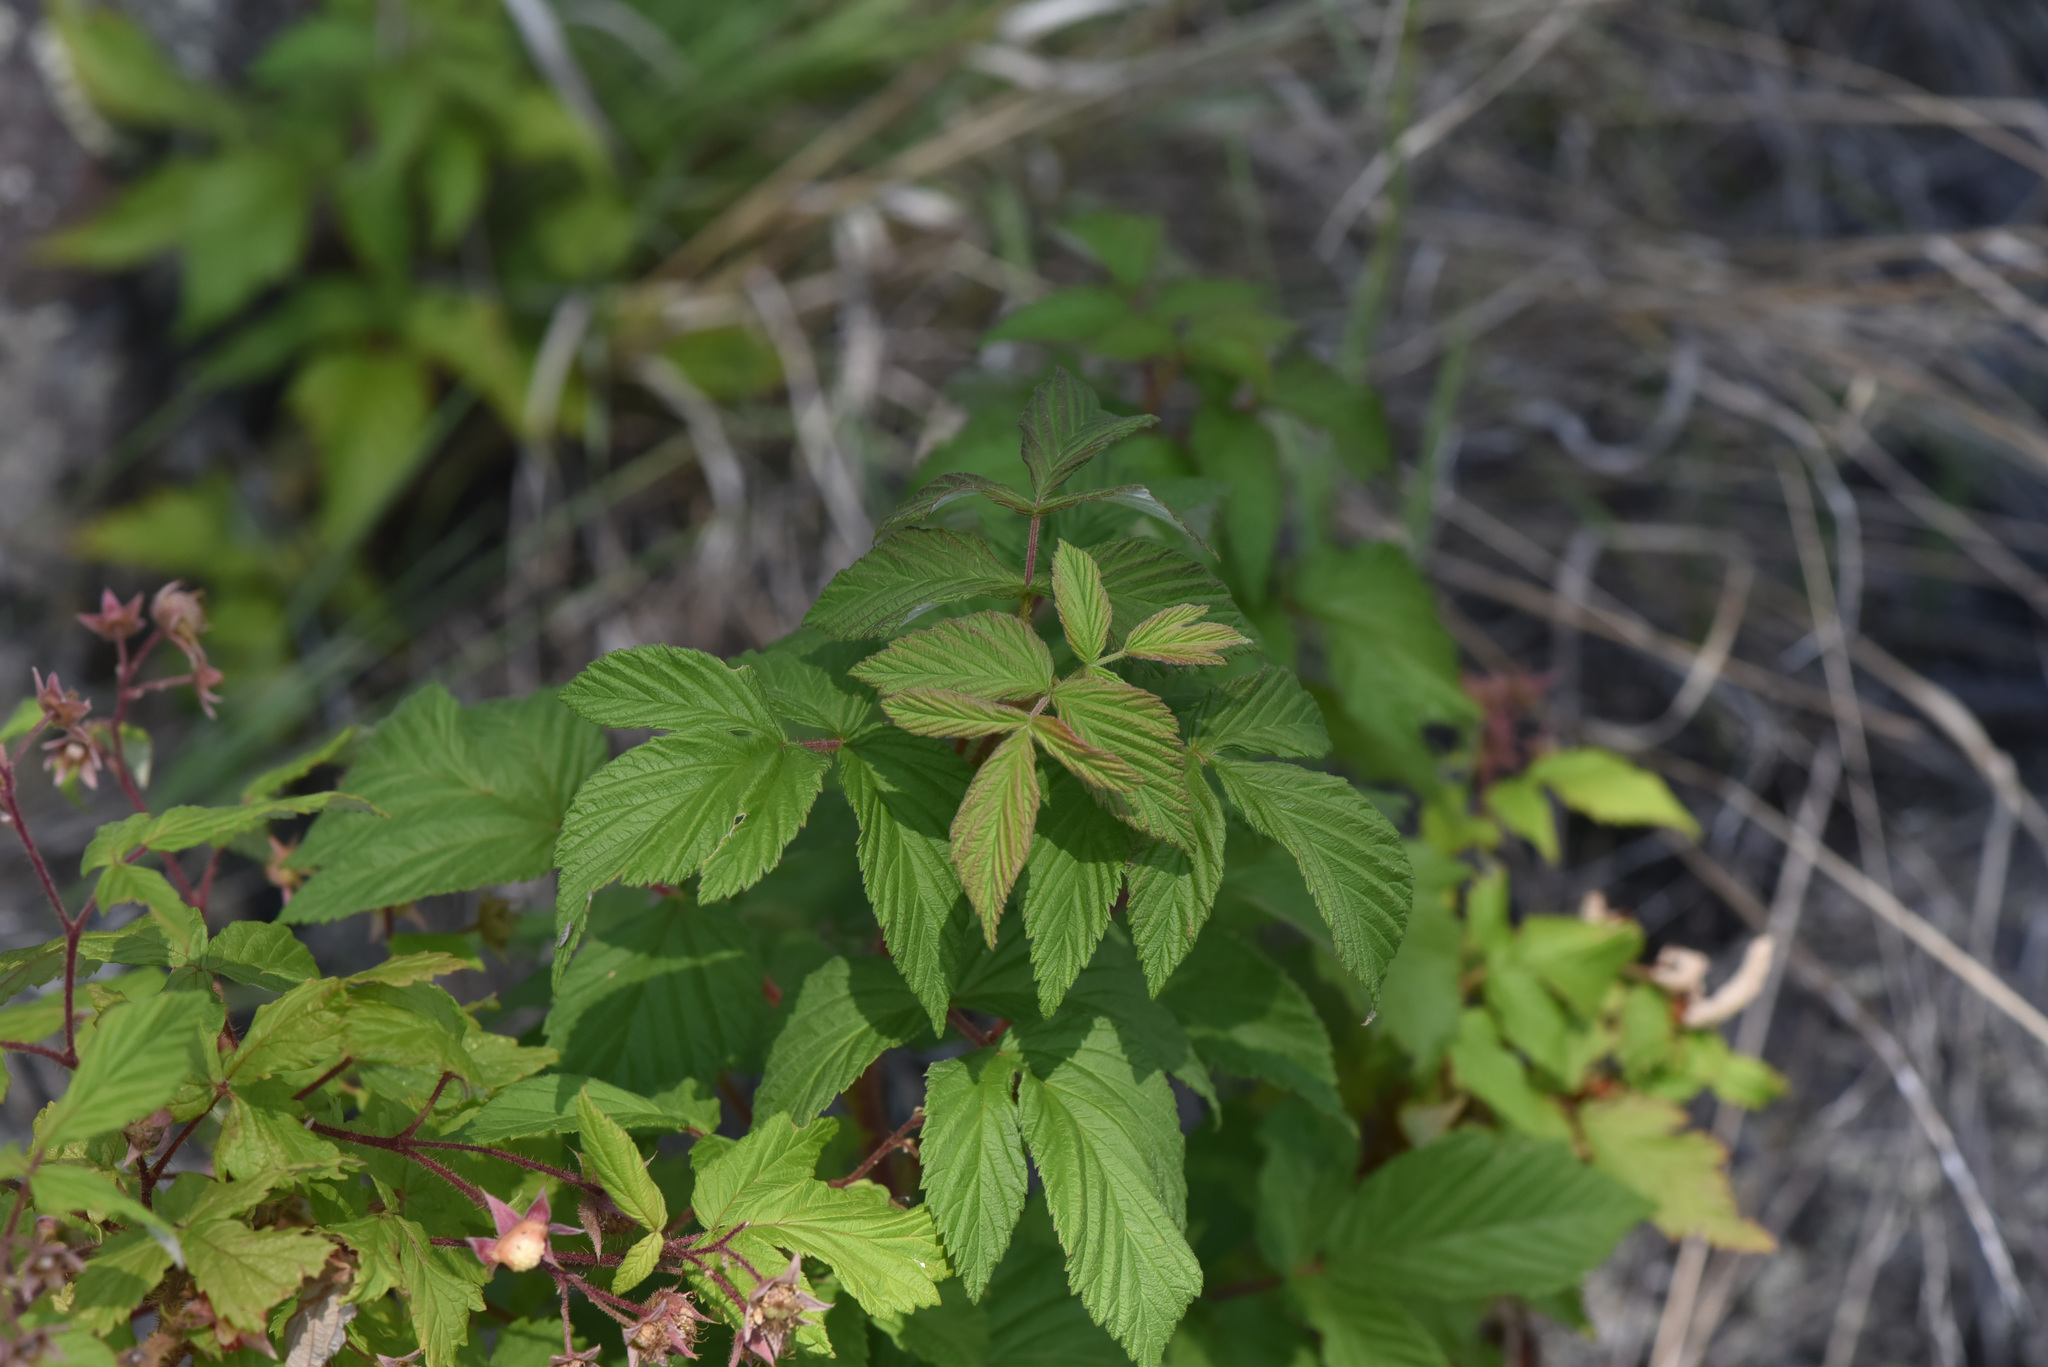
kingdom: Plantae
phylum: Tracheophyta
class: Magnoliopsida
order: Rosales
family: Rosaceae
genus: Rubus
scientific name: Rubus idaeus
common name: Raspberry
